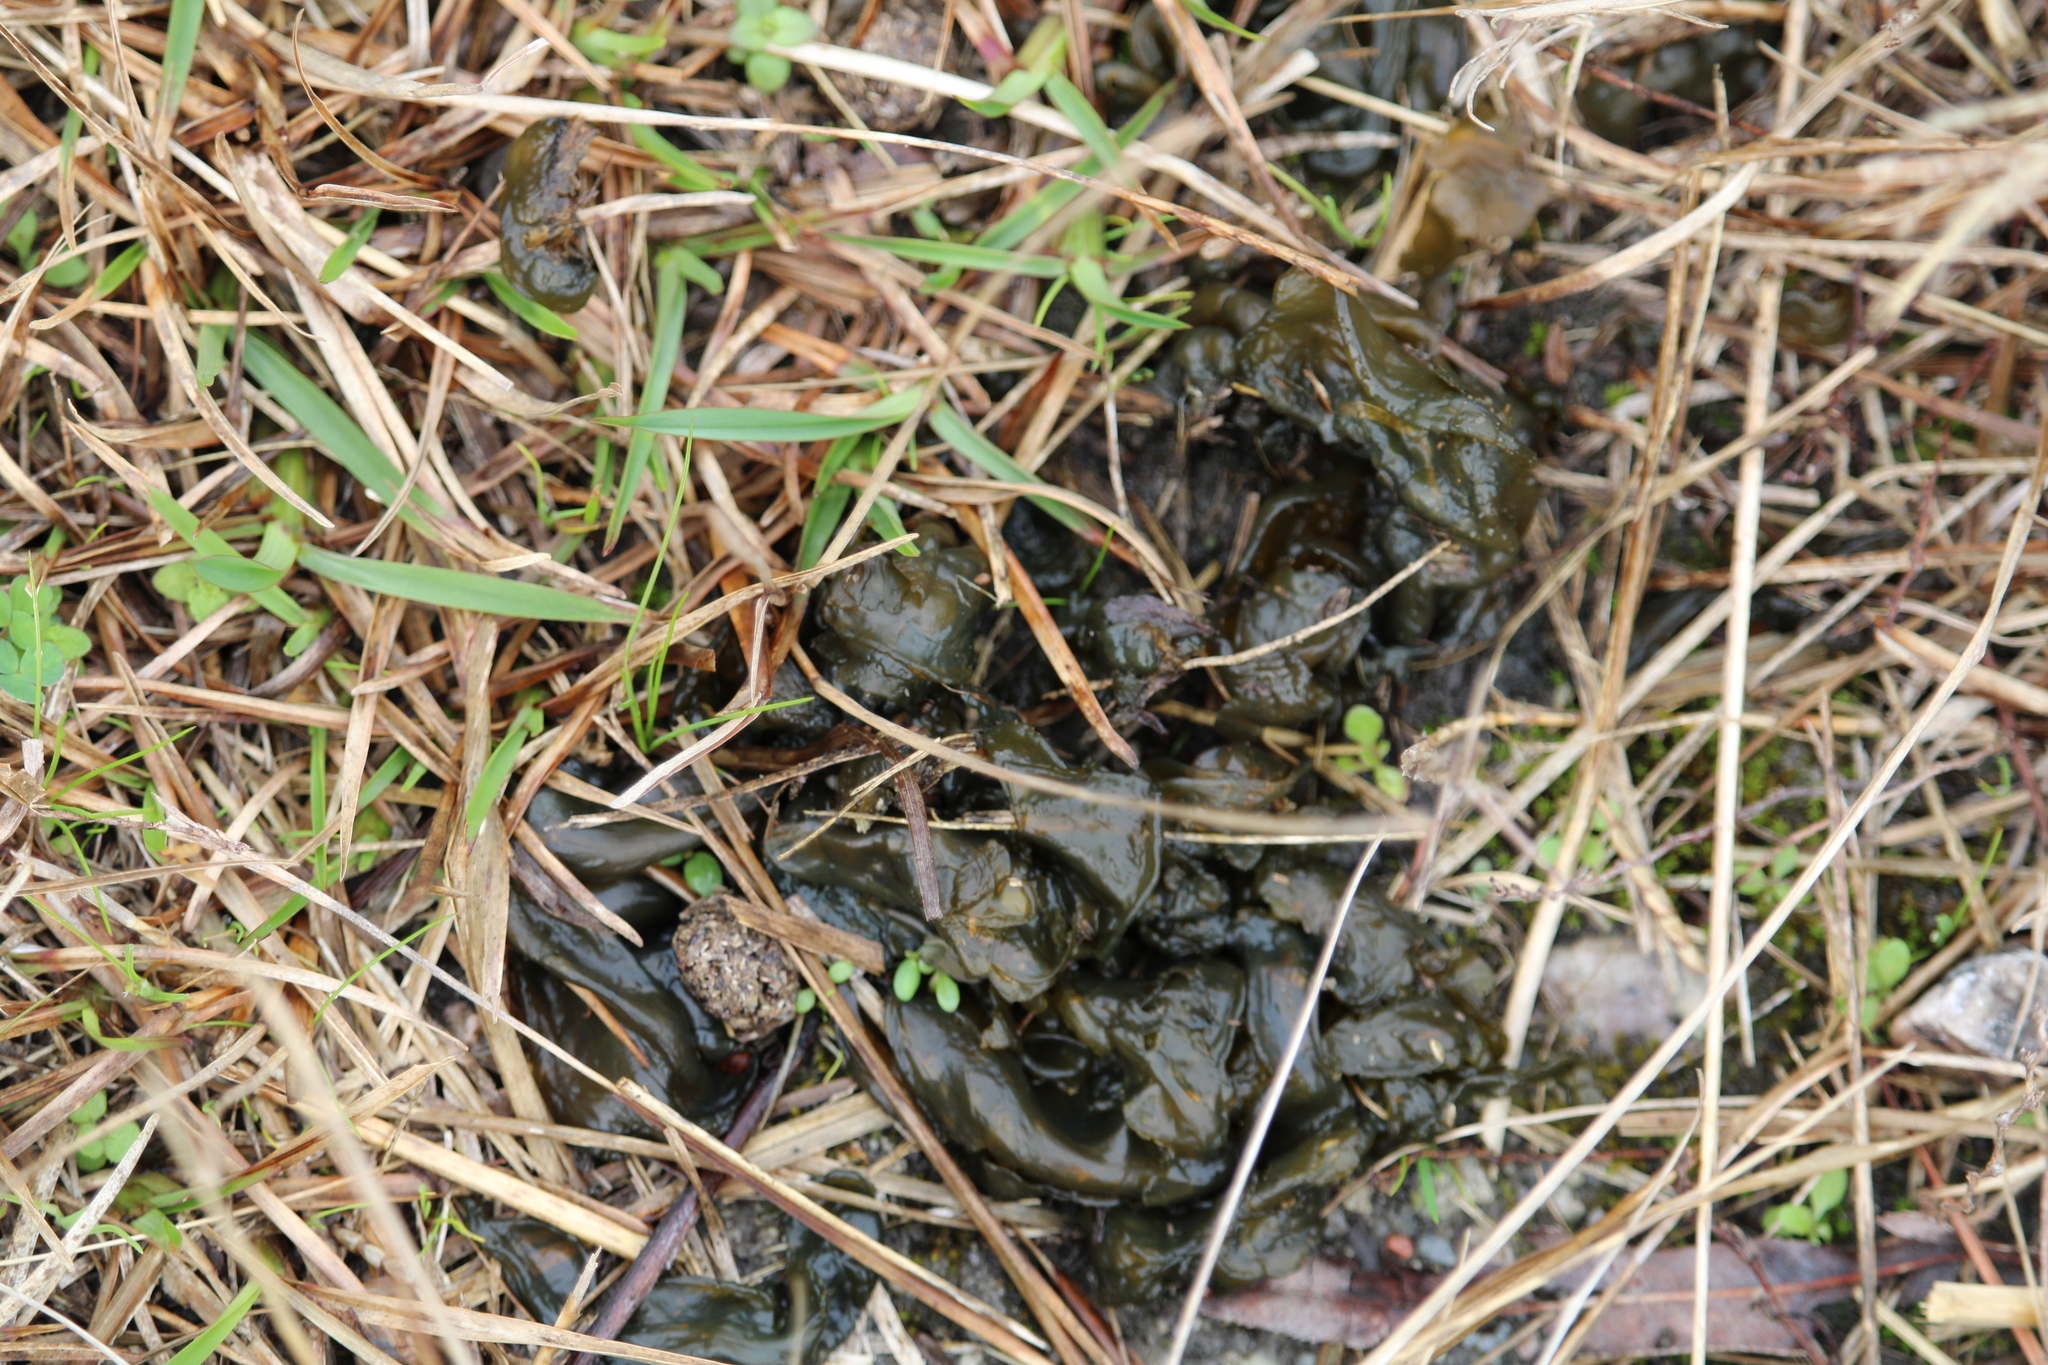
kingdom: Bacteria
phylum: Cyanobacteria
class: Cyanobacteriia
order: Cyanobacteriales
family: Nostocaceae
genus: Nostoc
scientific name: Nostoc commune
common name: Star jelly
